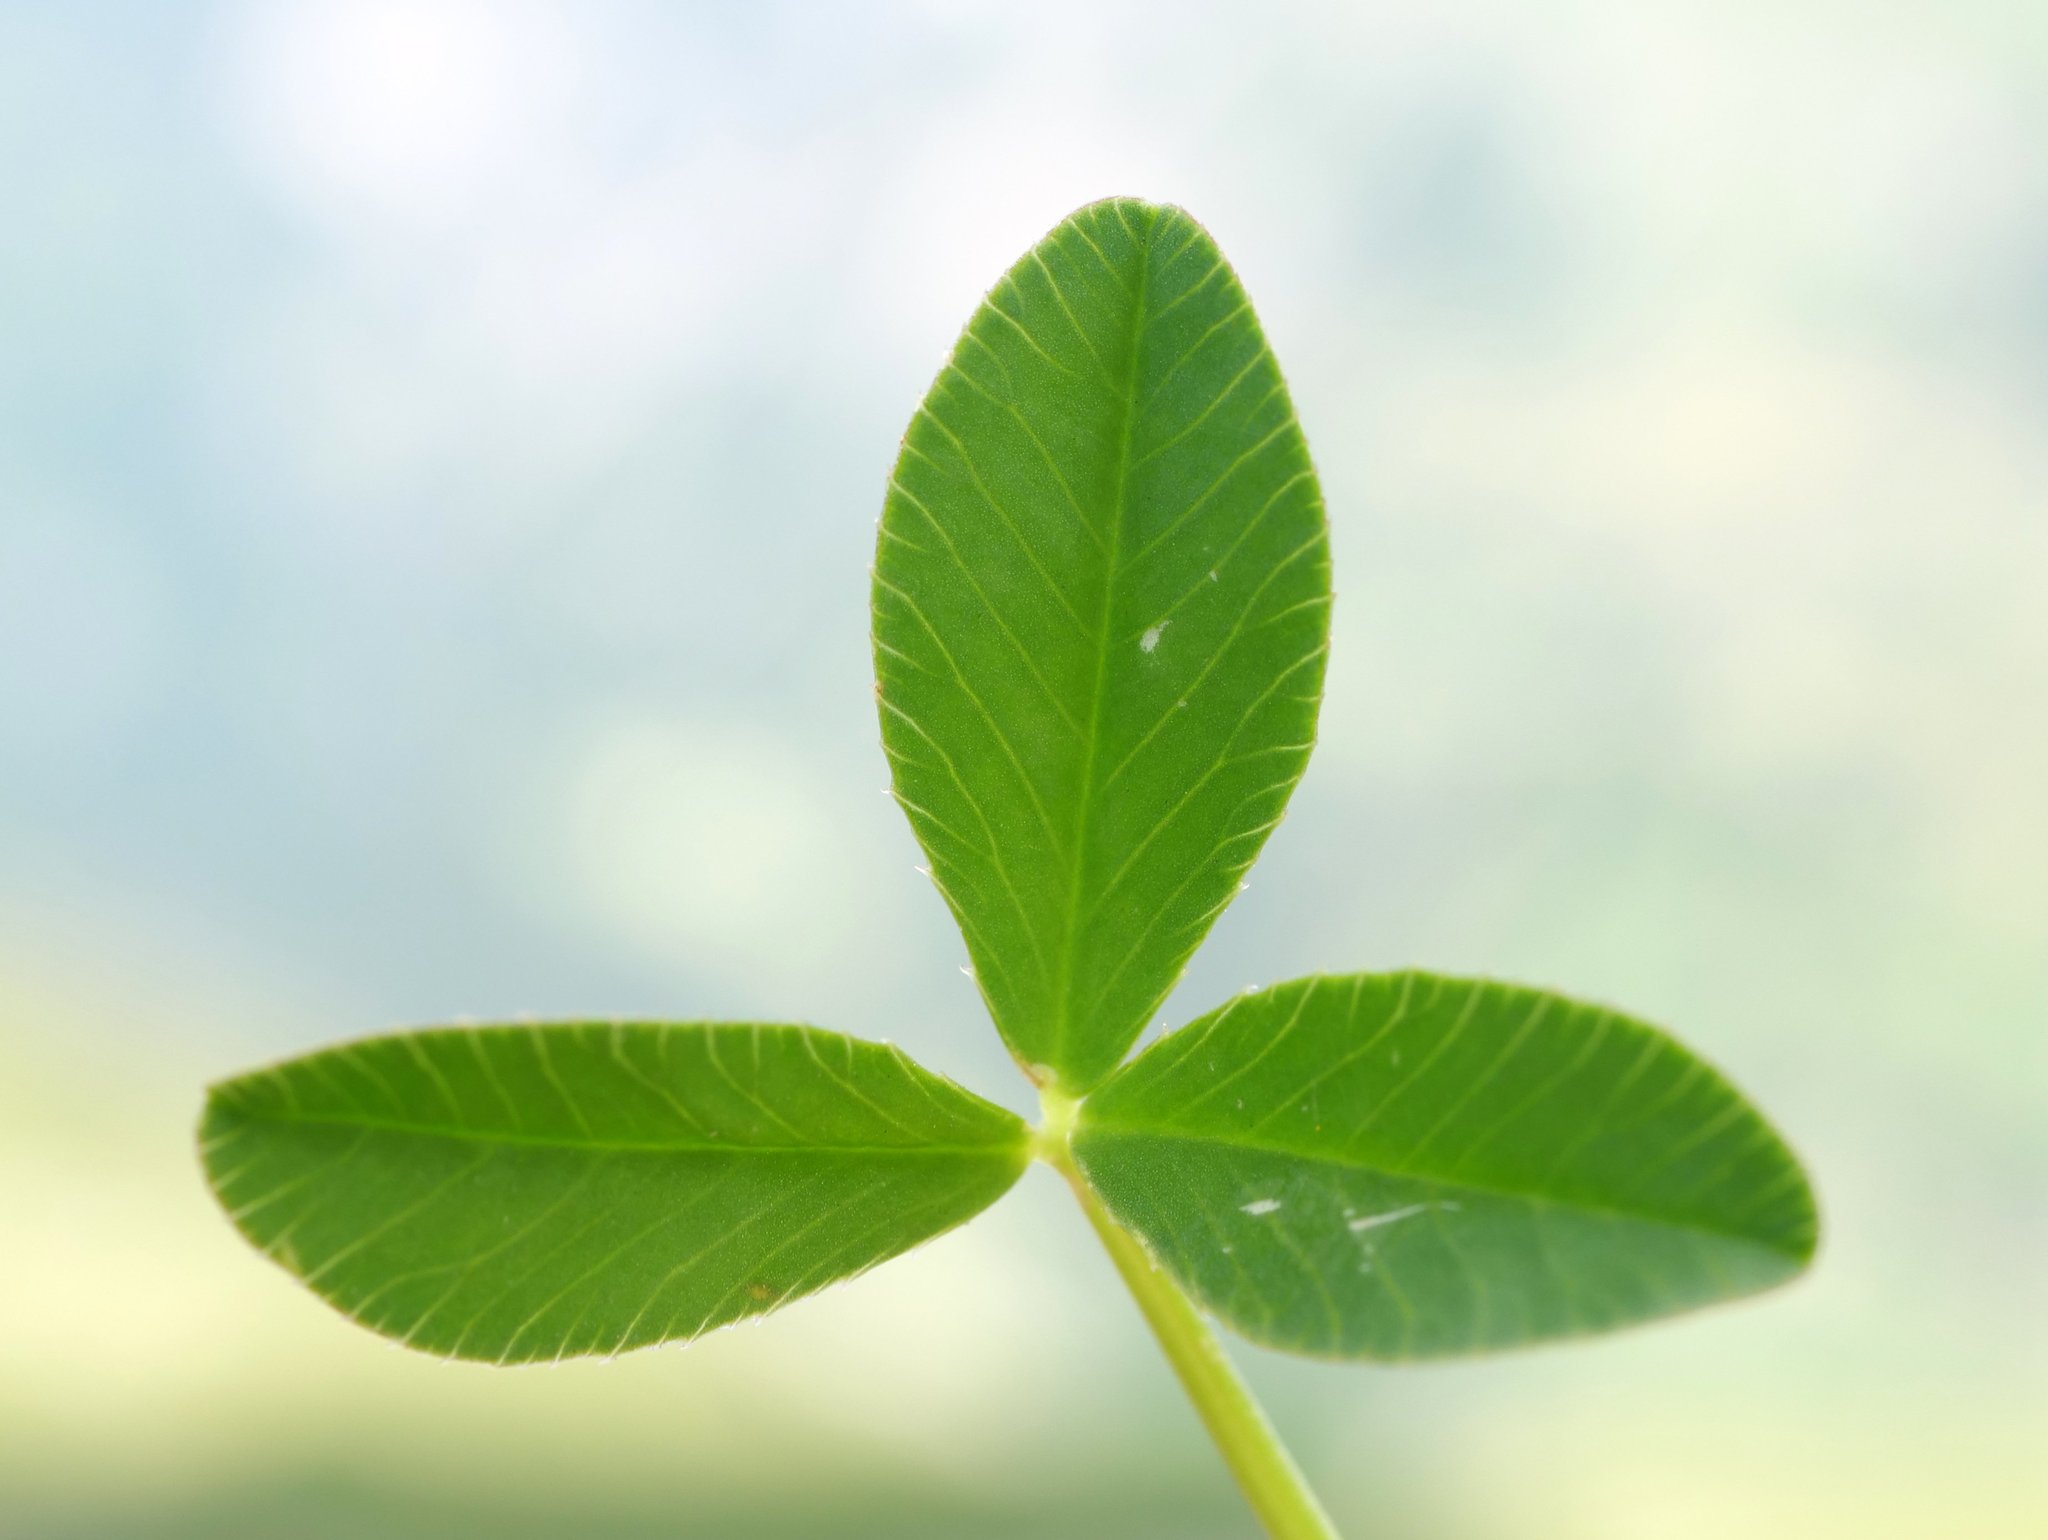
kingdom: Plantae
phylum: Tracheophyta
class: Magnoliopsida
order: Fabales
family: Fabaceae
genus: Trifolium
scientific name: Trifolium thalii
